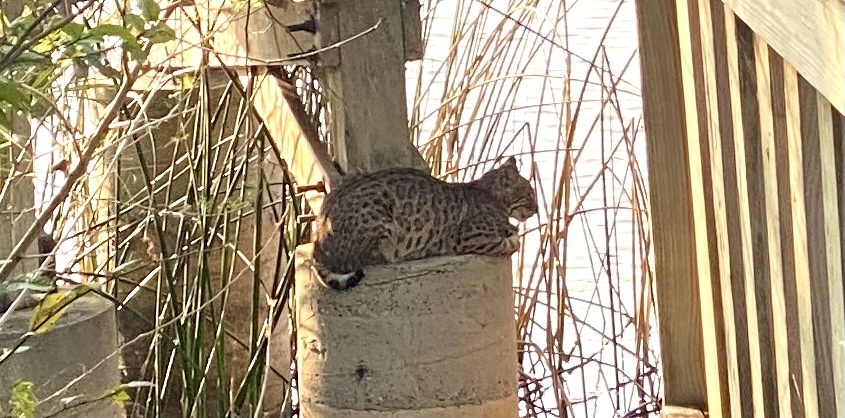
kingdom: Animalia
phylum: Chordata
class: Mammalia
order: Carnivora
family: Felidae
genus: Lynx
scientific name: Lynx rufus
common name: Bobcat
